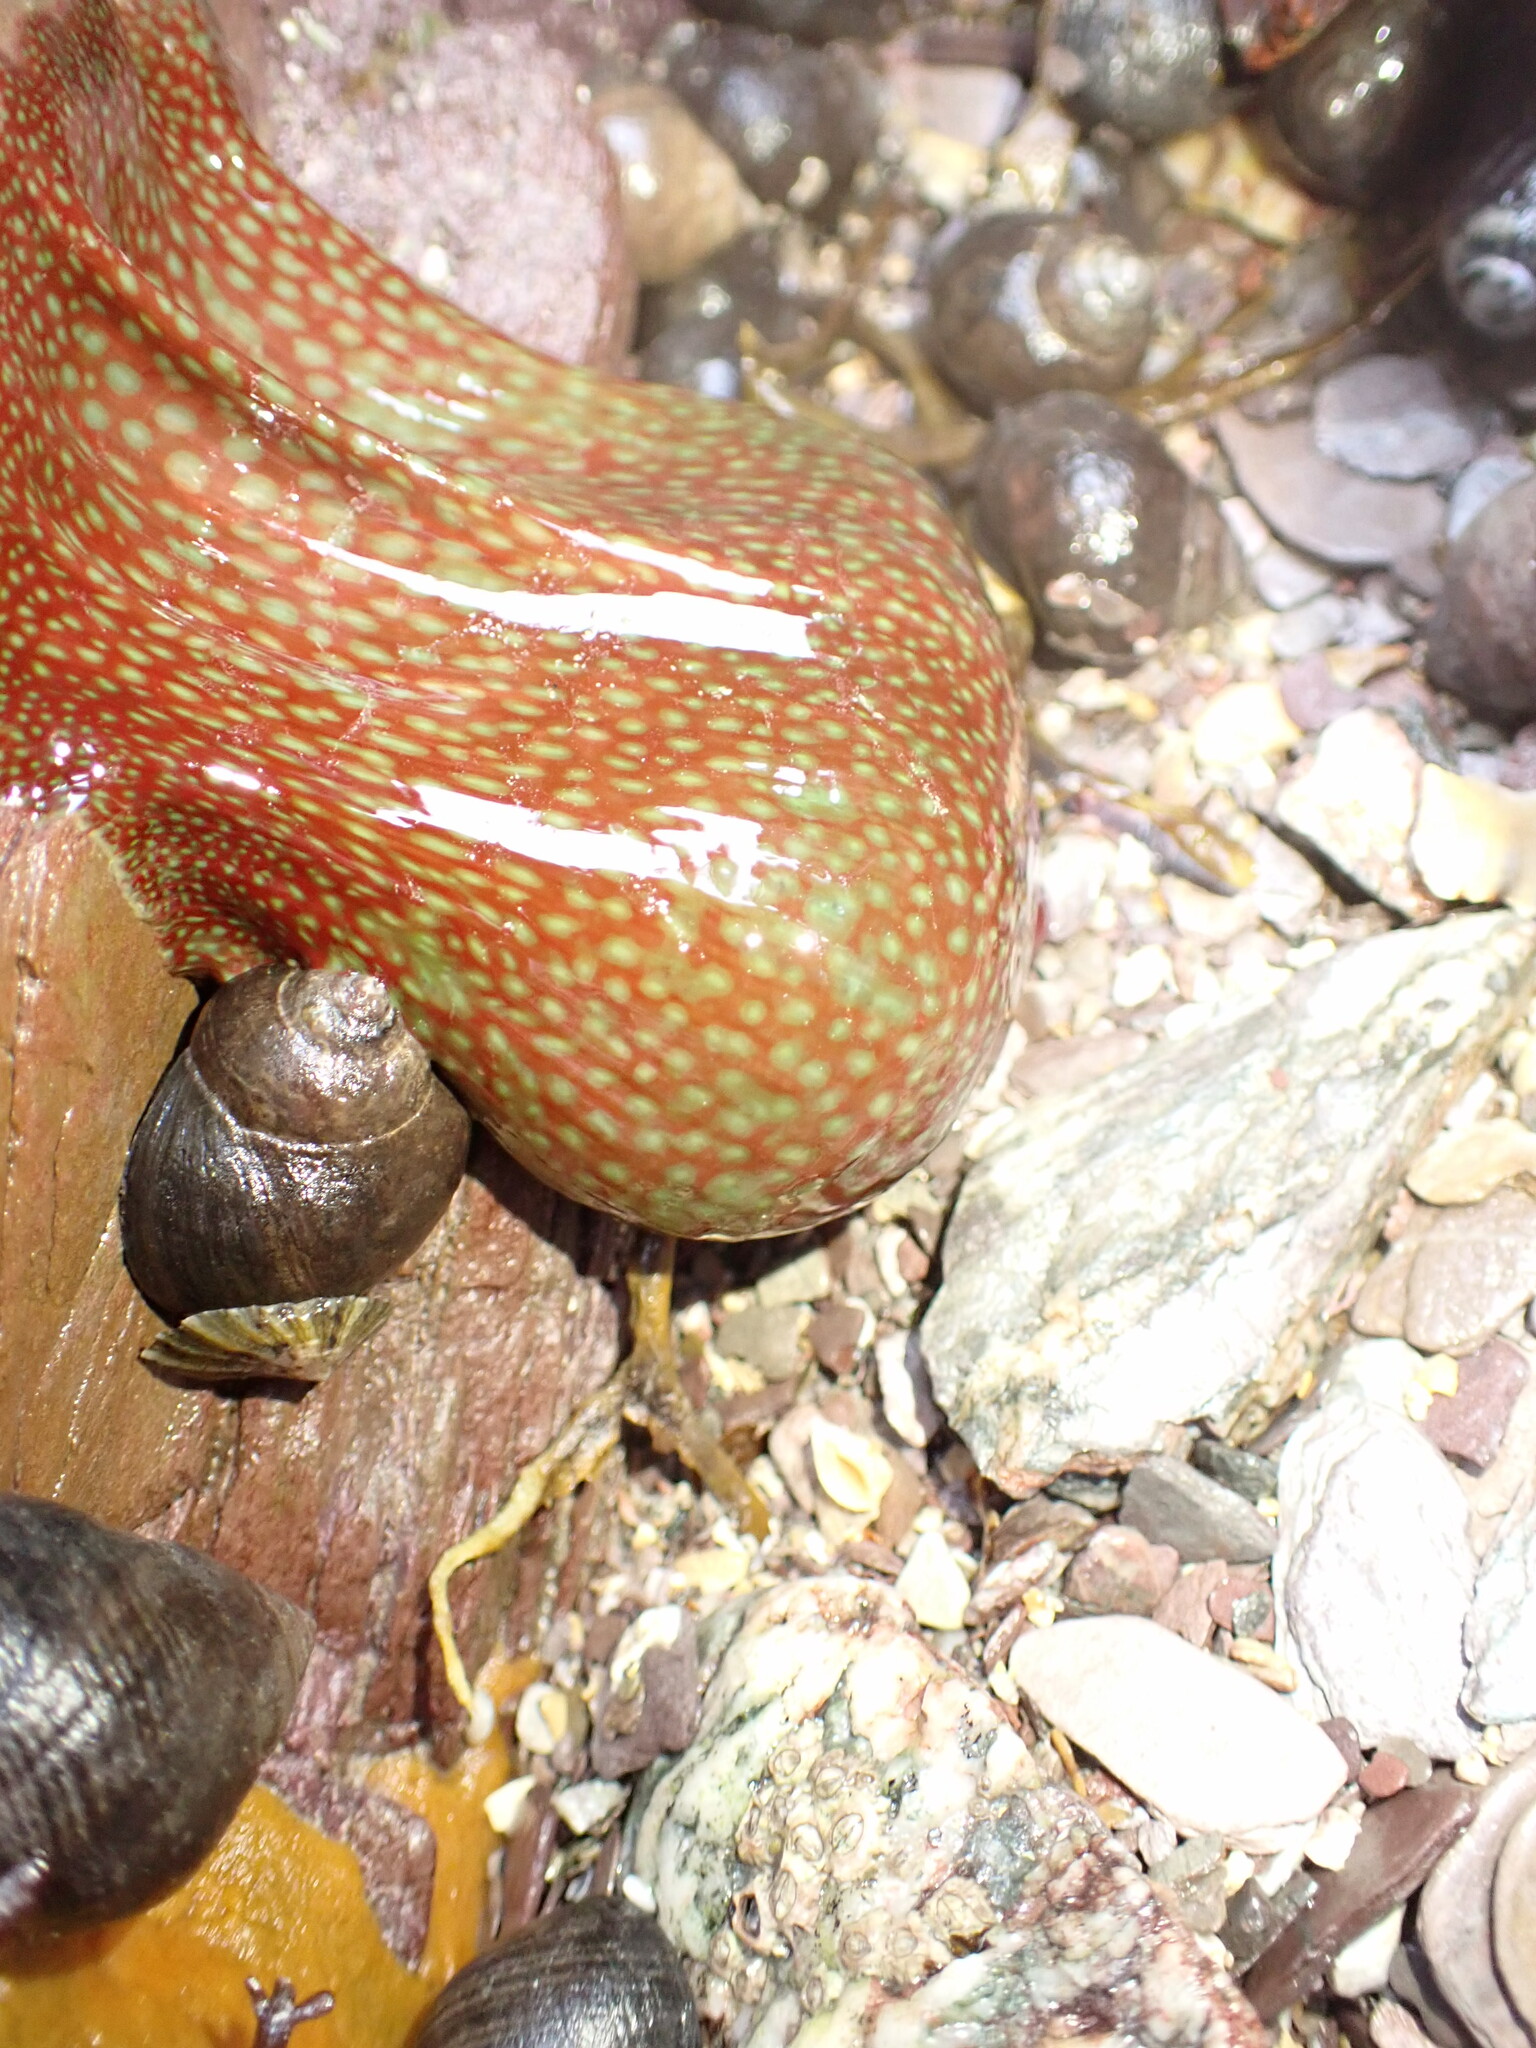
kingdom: Animalia
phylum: Cnidaria
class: Anthozoa
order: Actiniaria
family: Actiniidae
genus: Actinia
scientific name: Actinia fragacea
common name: Strawberry anemone
